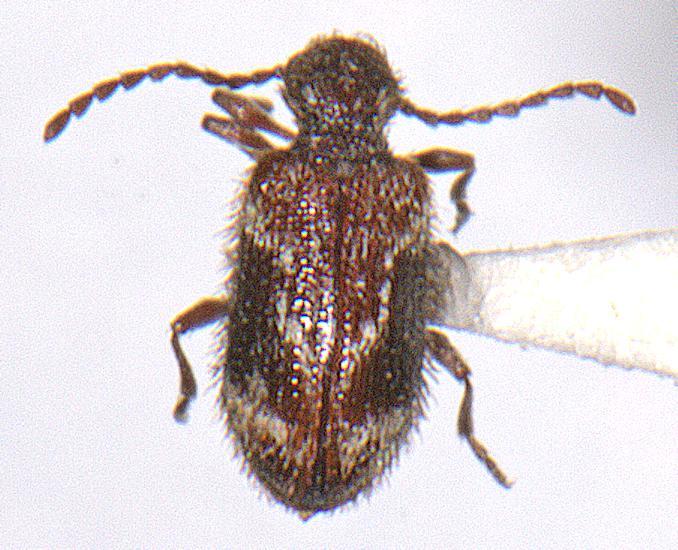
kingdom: Animalia
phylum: Arthropoda
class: Insecta
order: Coleoptera
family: Ptinidae
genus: Ptinus
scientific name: Ptinus fallax
